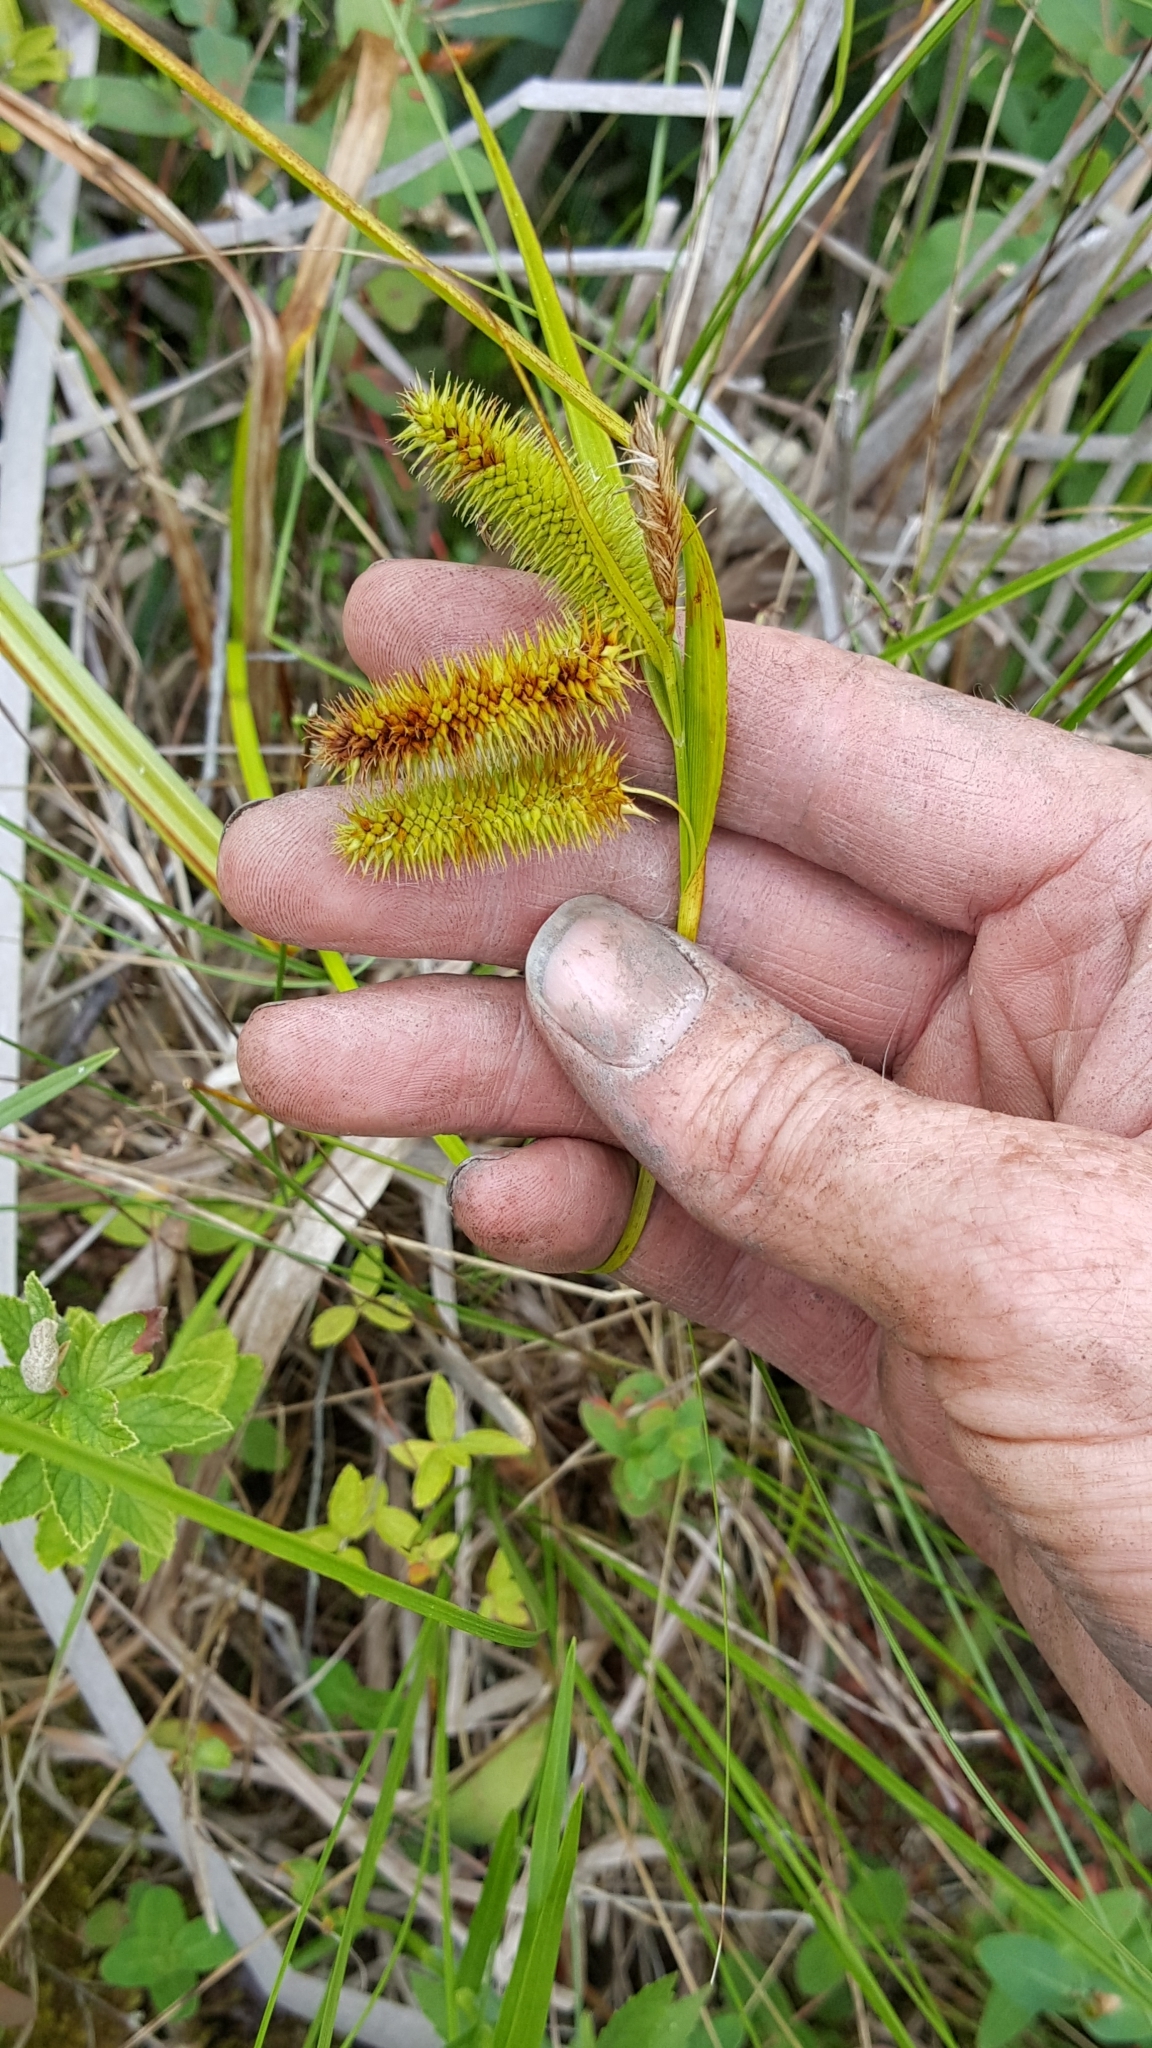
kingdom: Plantae
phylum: Tracheophyta
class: Liliopsida
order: Poales
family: Cyperaceae
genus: Carex
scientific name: Carex comosa
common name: Bristly sedge
